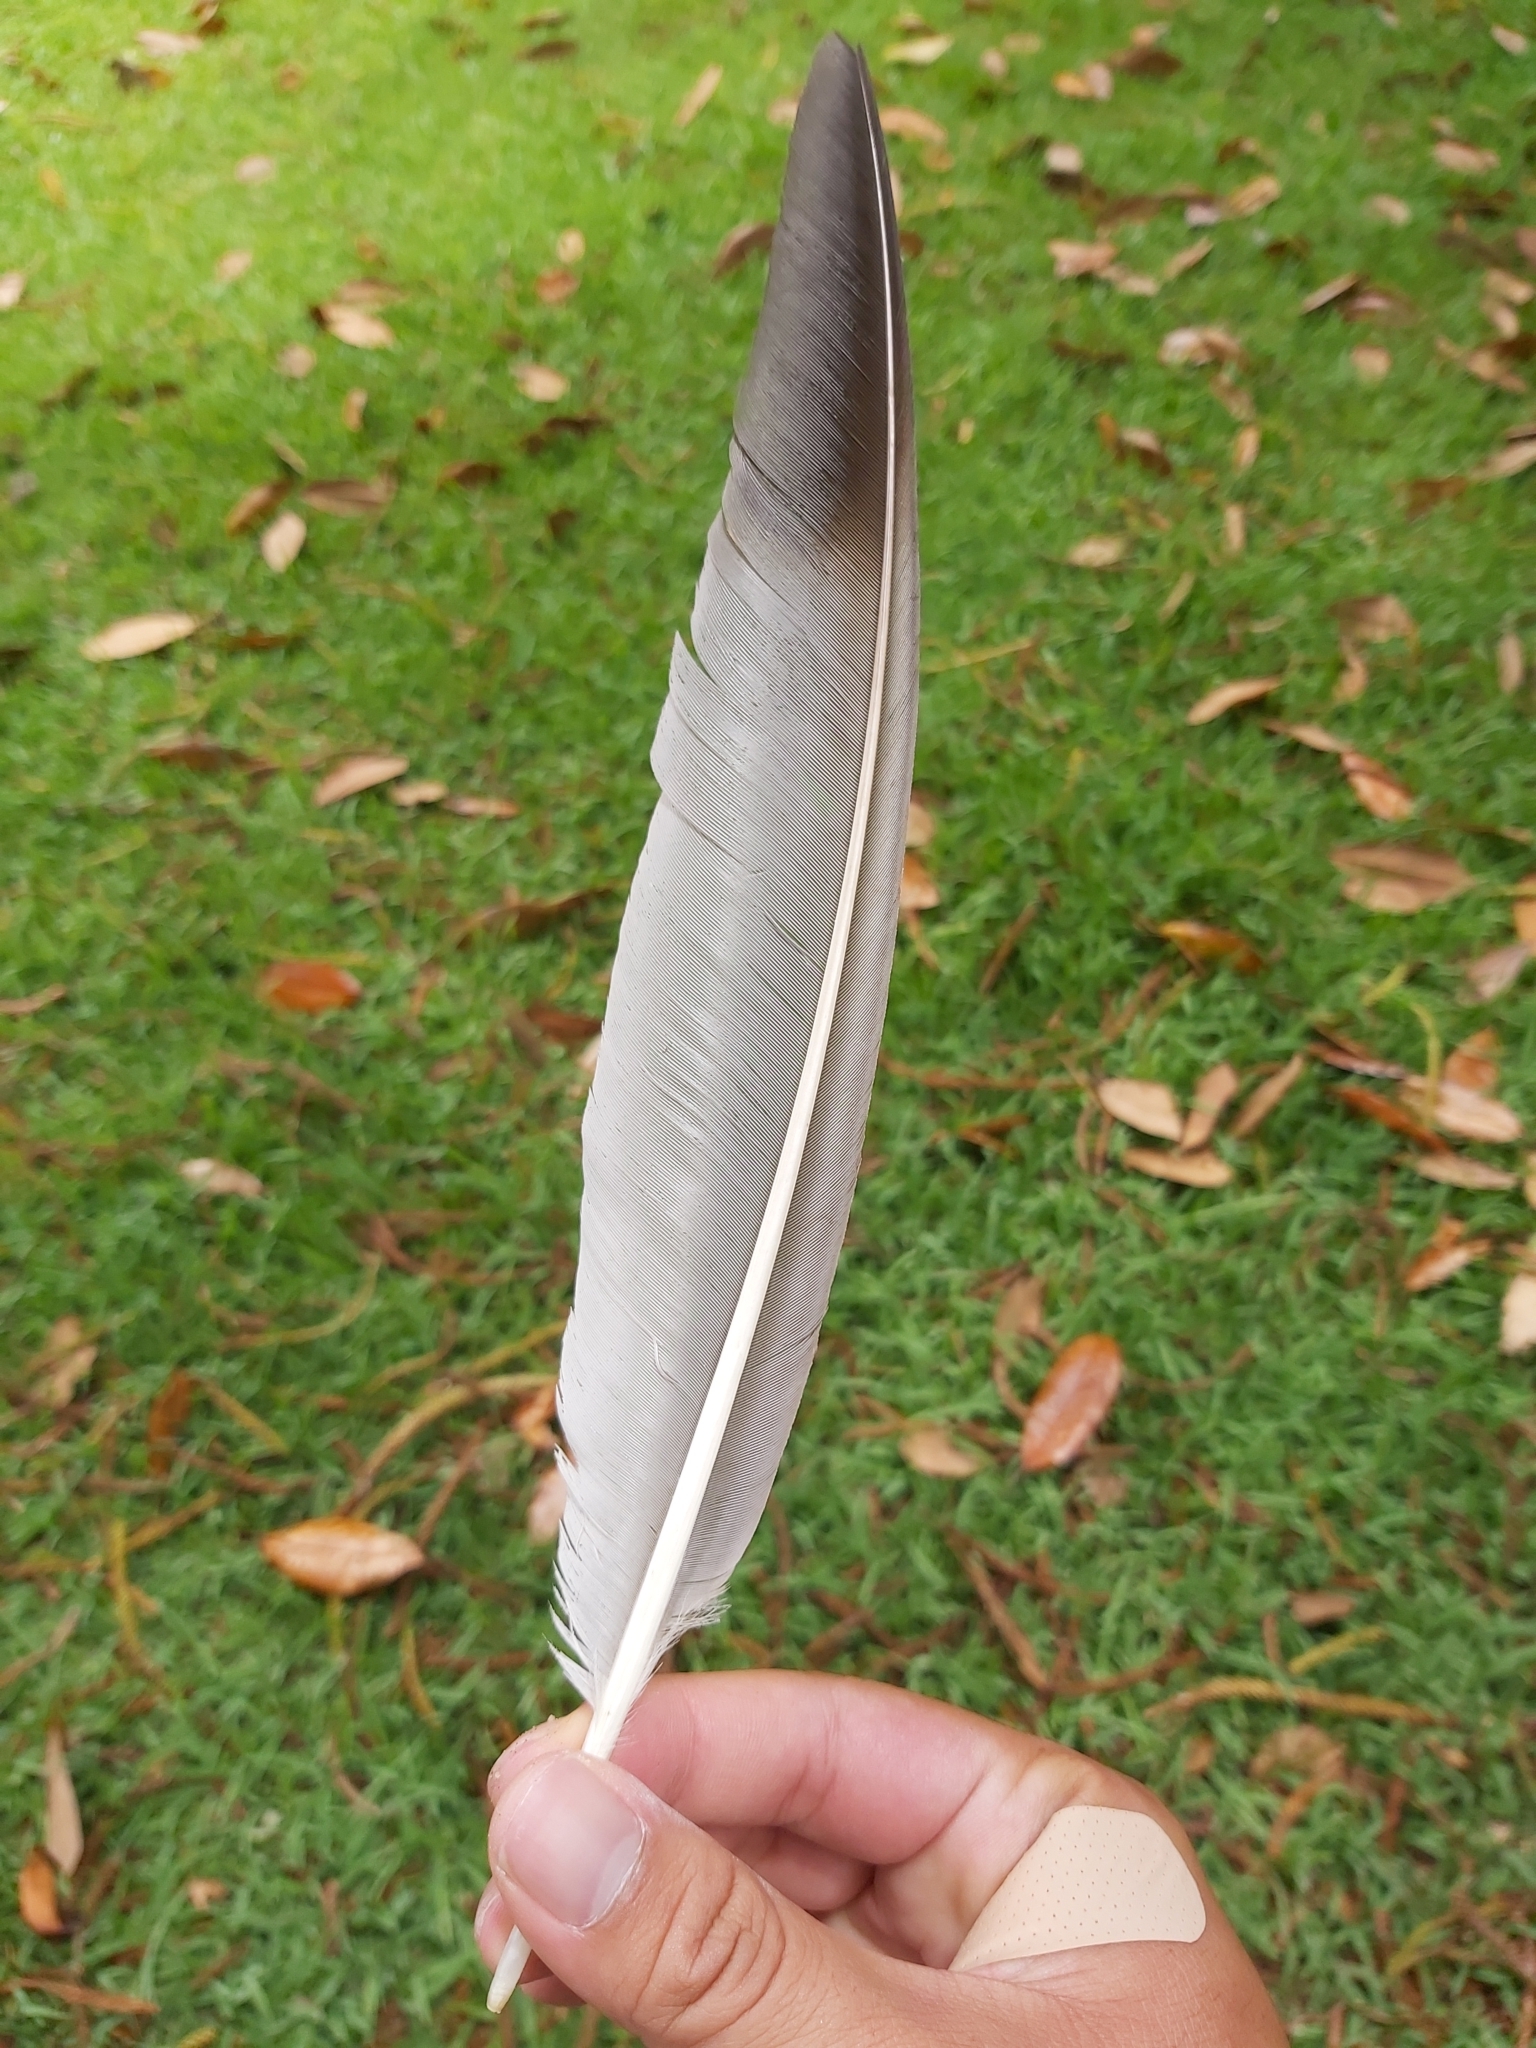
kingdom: Animalia
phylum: Chordata
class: Aves
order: Cuculiformes
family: Cuculidae
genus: Scythrops
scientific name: Scythrops novaehollandiae
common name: Channel-billed cuckoo
